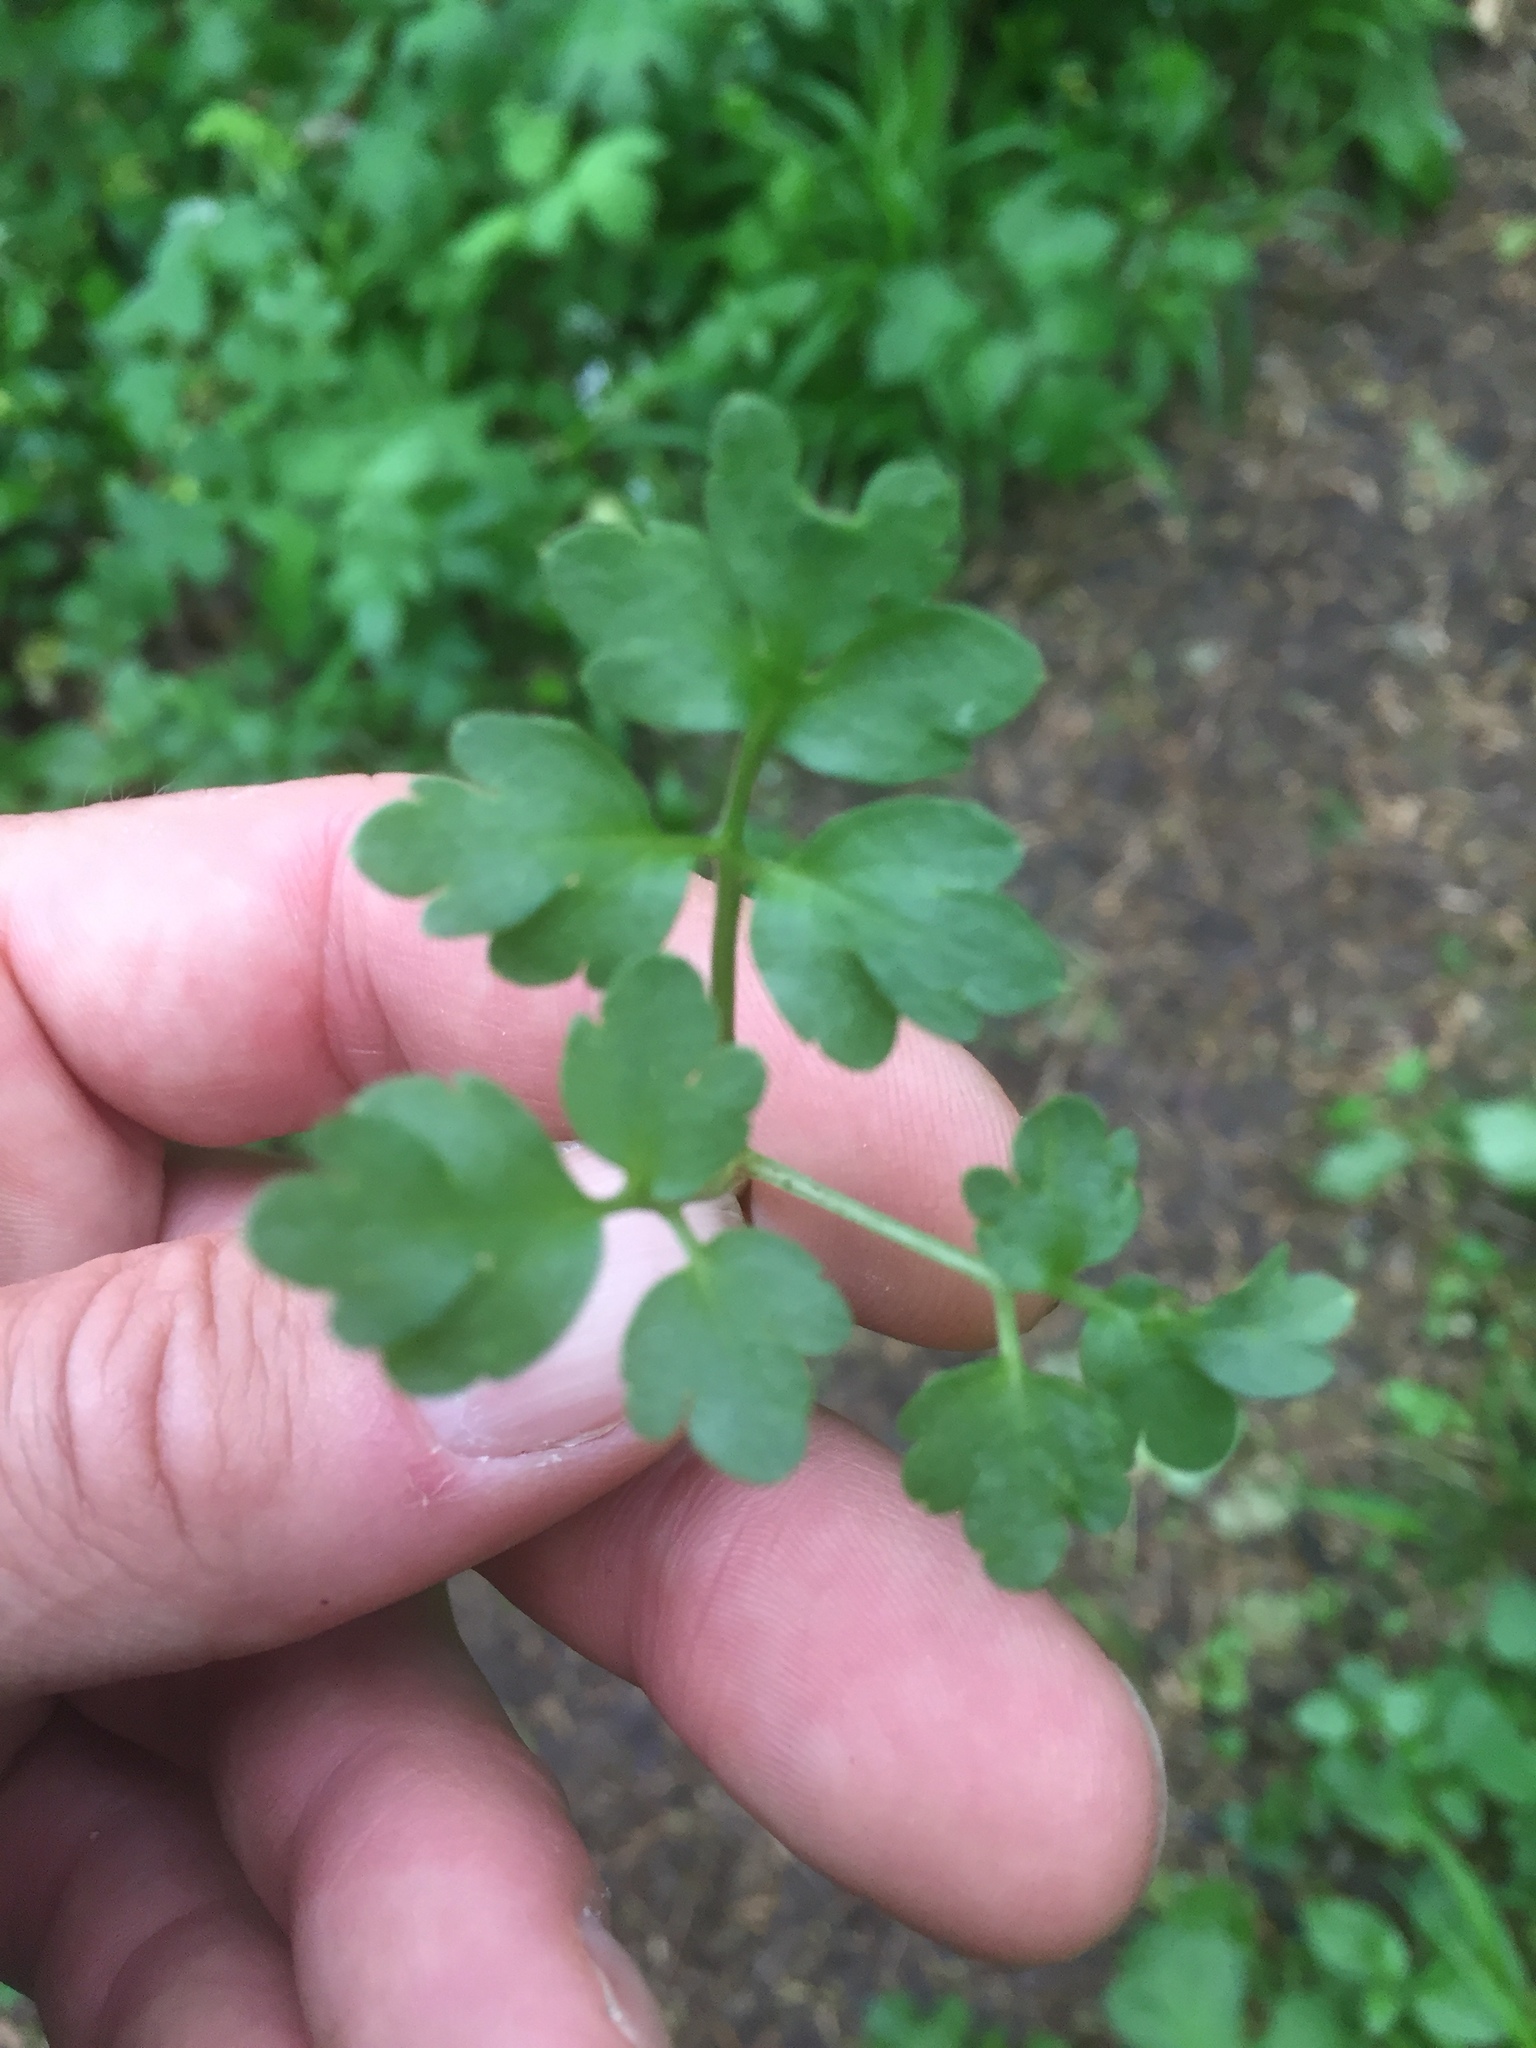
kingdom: Plantae
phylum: Tracheophyta
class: Magnoliopsida
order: Dipsacales
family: Viburnaceae
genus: Adoxa
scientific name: Adoxa moschatellina
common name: Moschatel
